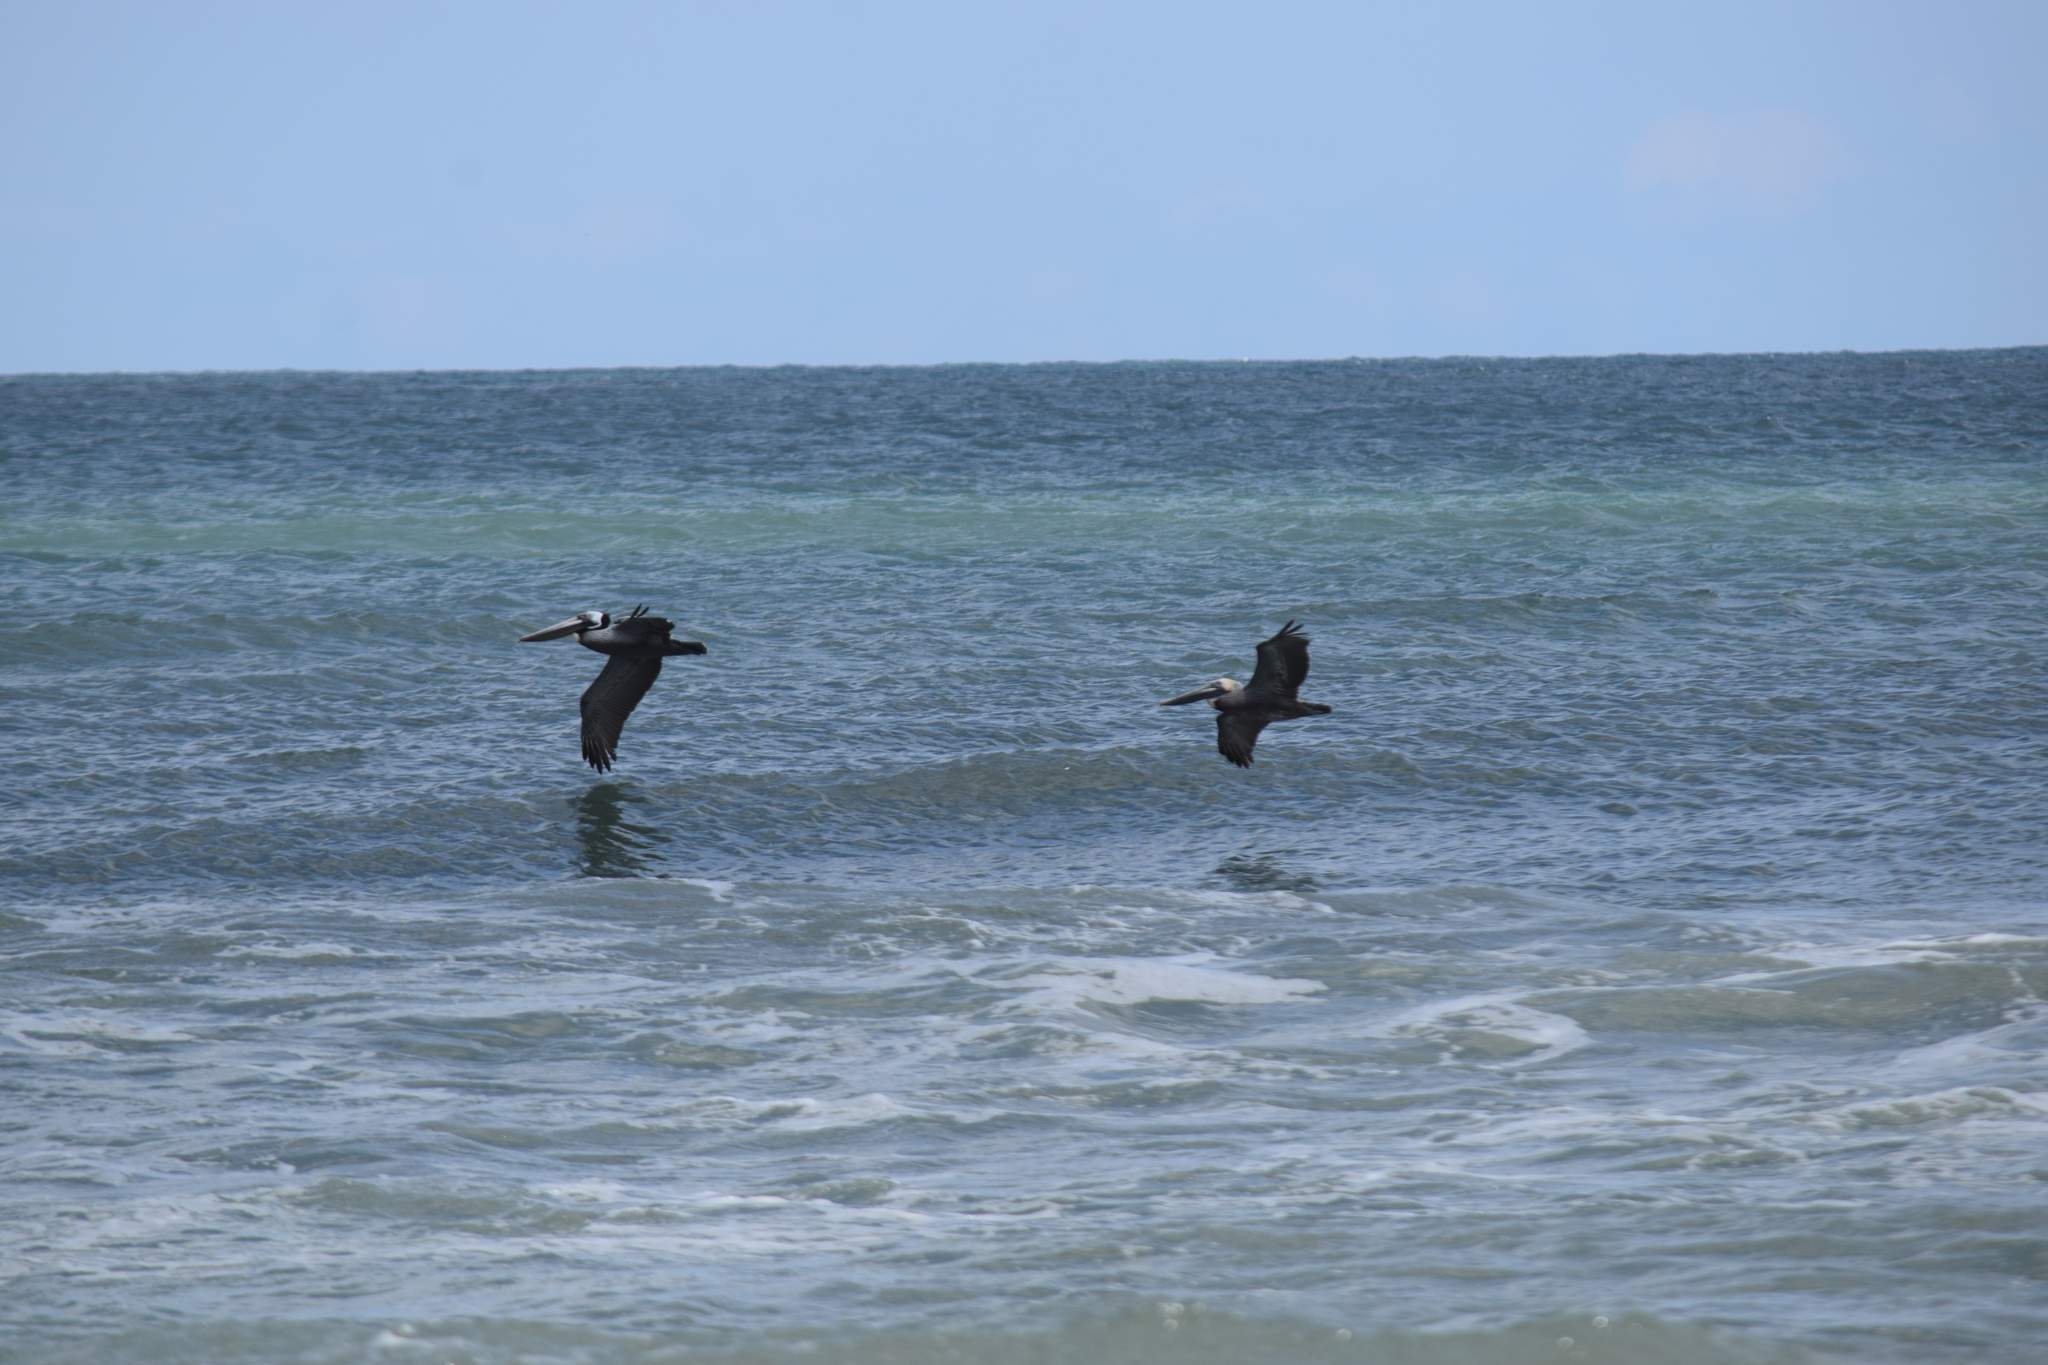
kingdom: Animalia
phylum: Chordata
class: Aves
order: Pelecaniformes
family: Pelecanidae
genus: Pelecanus
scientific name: Pelecanus occidentalis
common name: Brown pelican
